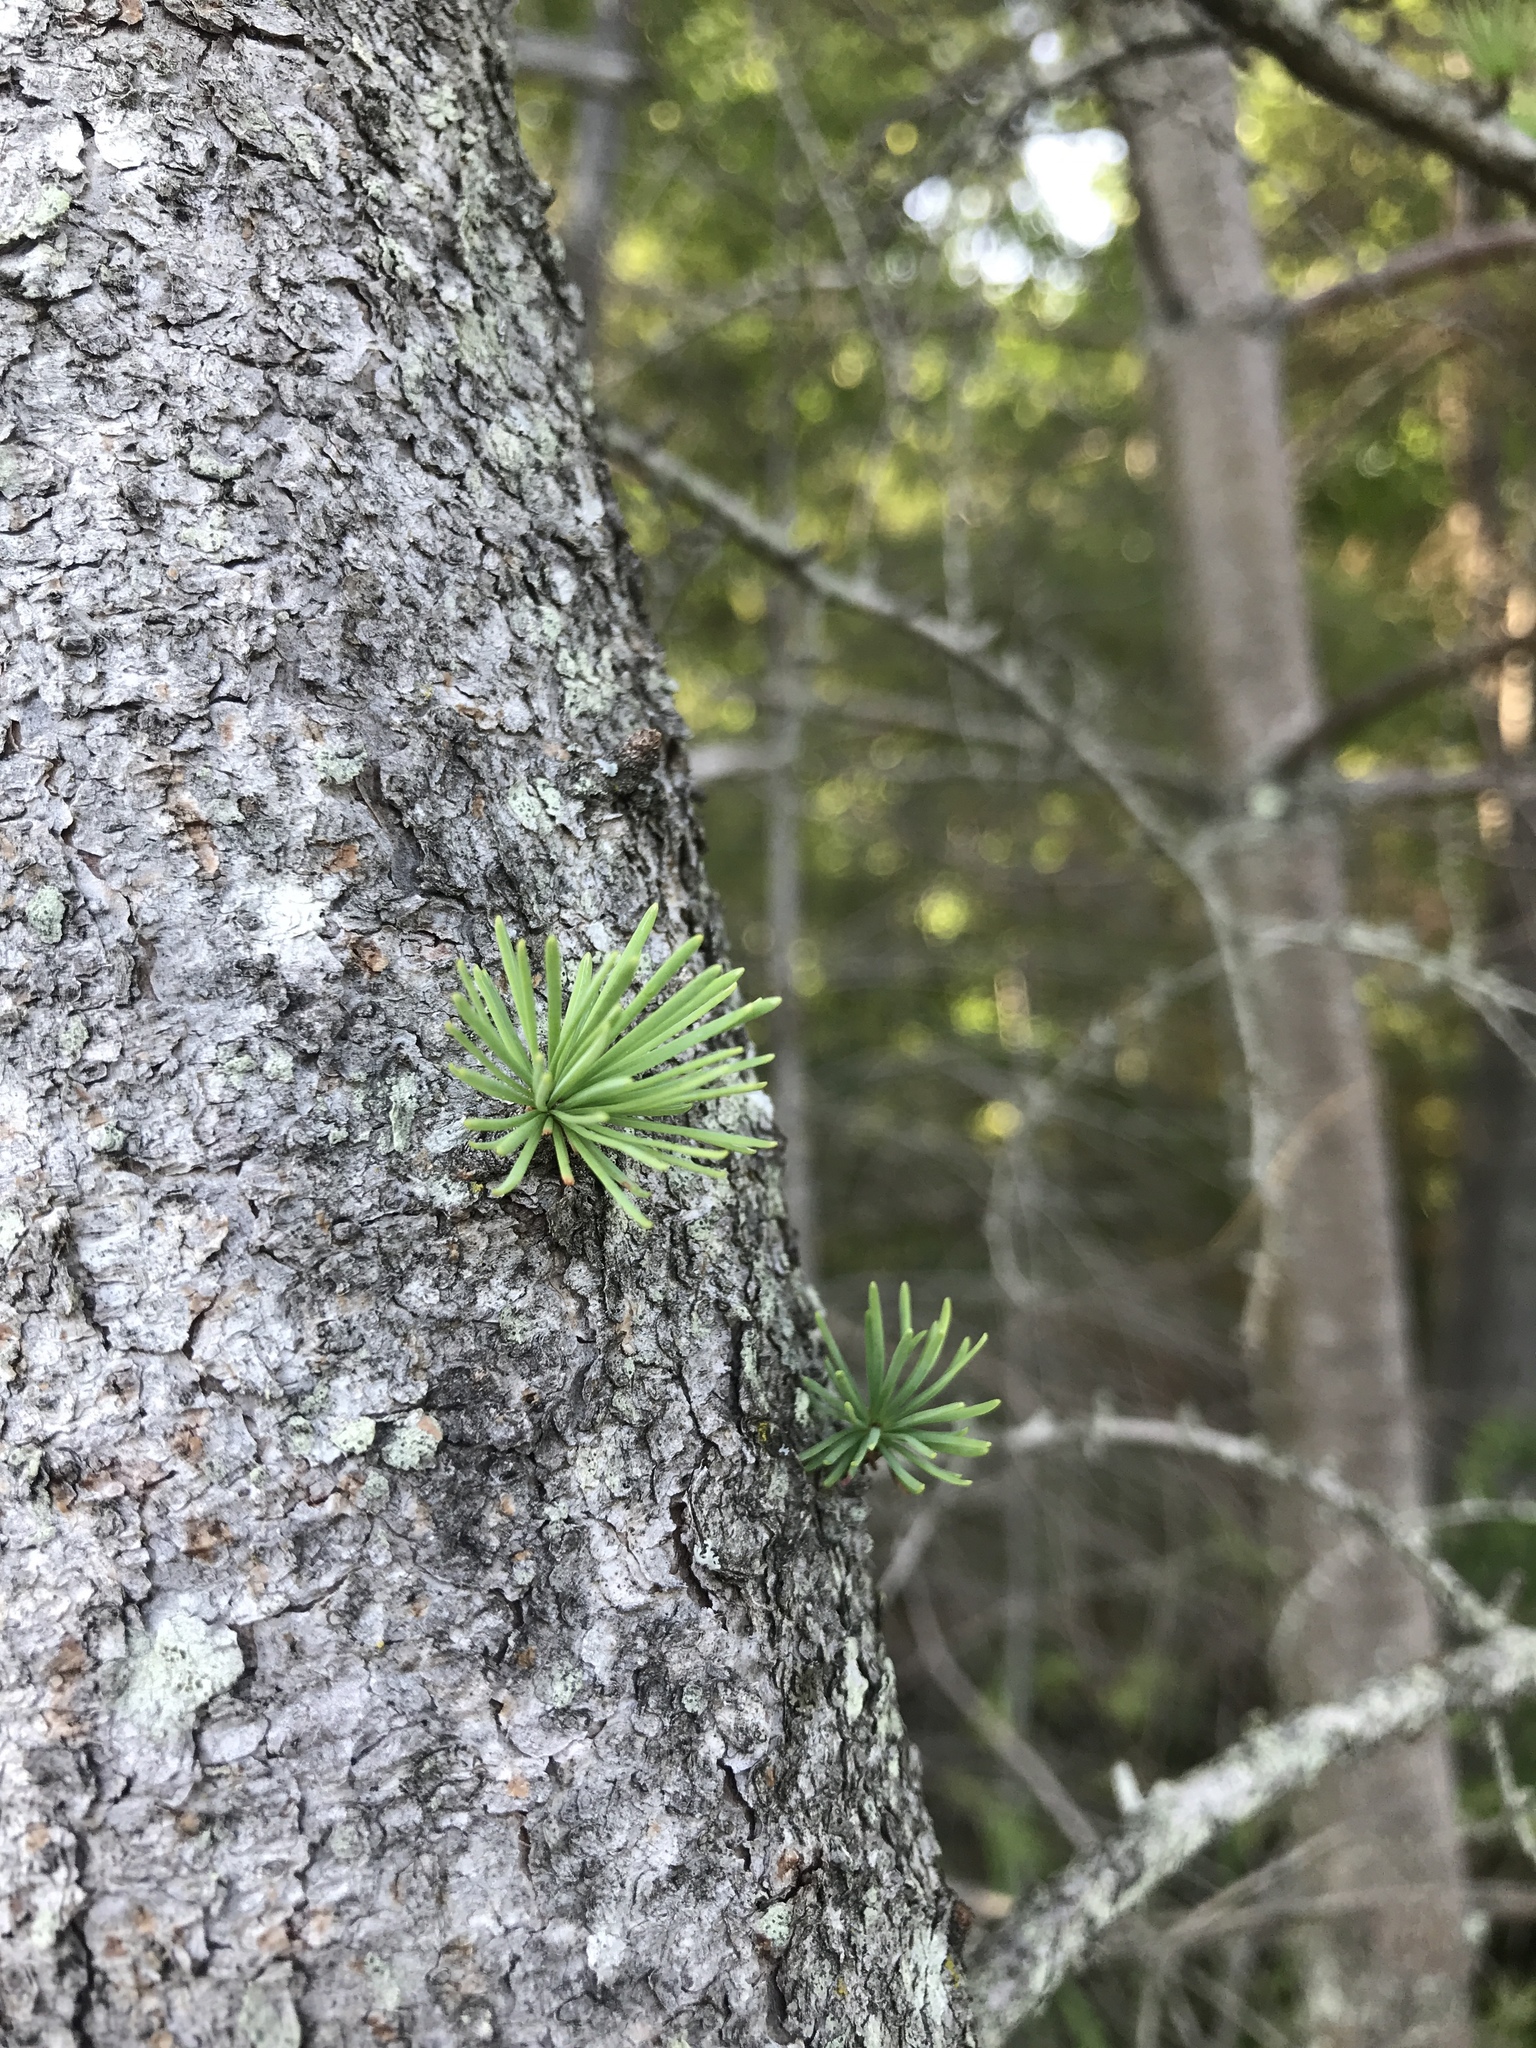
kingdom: Plantae
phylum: Tracheophyta
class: Pinopsida
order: Pinales
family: Pinaceae
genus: Larix
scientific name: Larix laricina
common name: American larch
